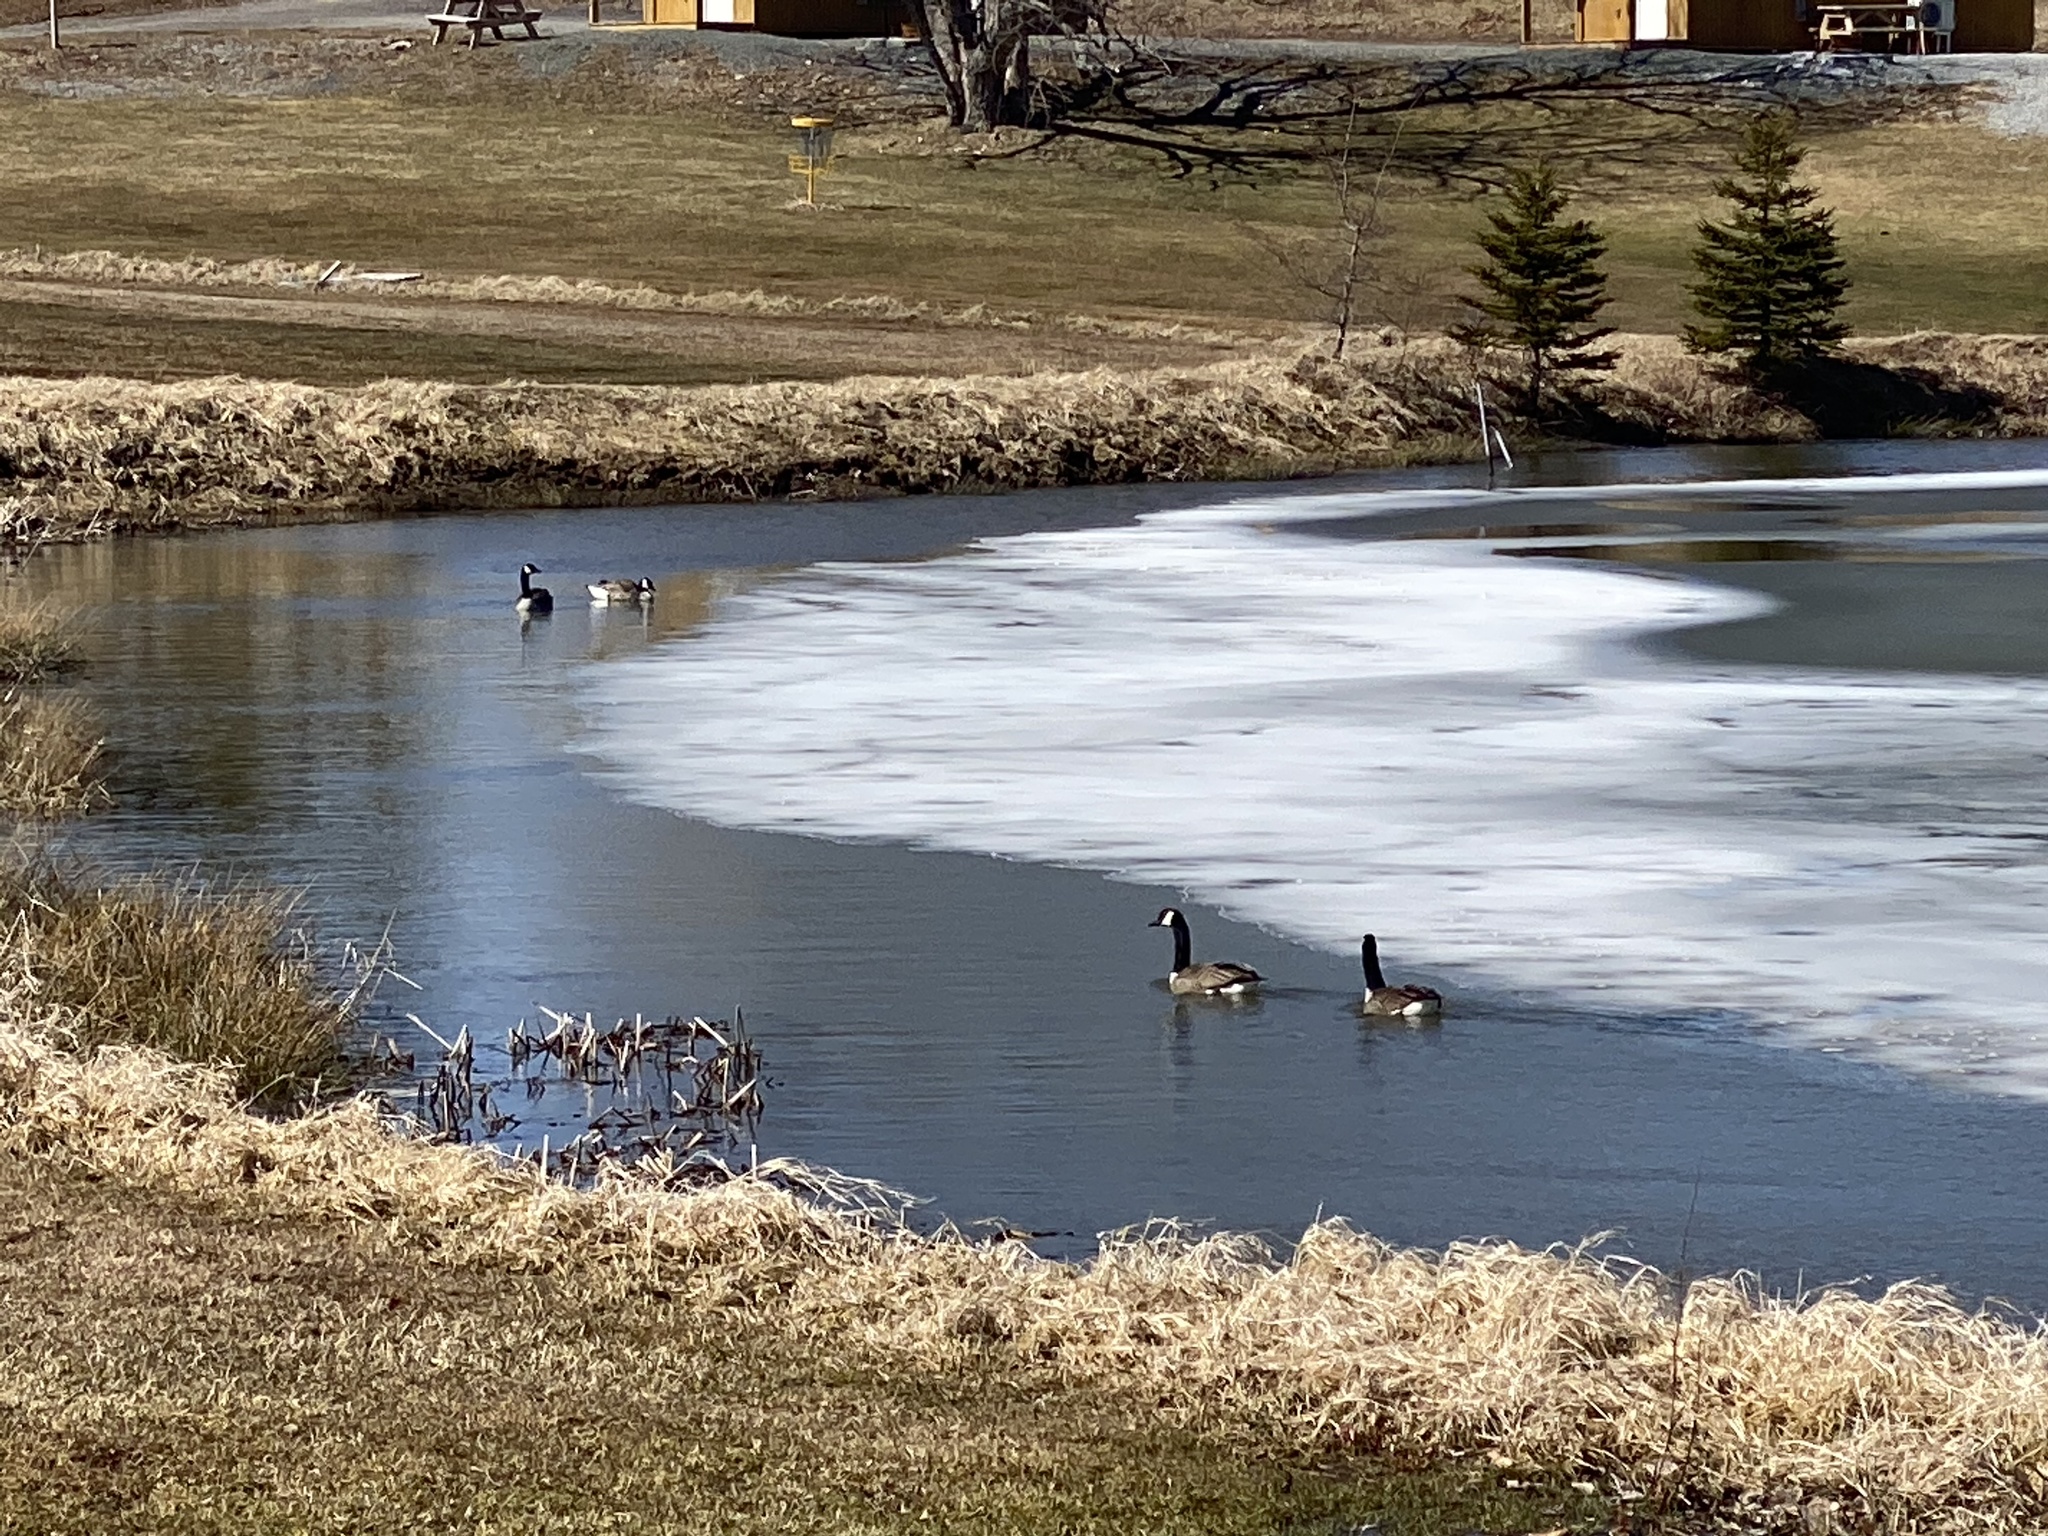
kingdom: Animalia
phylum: Chordata
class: Aves
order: Anseriformes
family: Anatidae
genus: Branta
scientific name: Branta canadensis
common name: Canada goose
